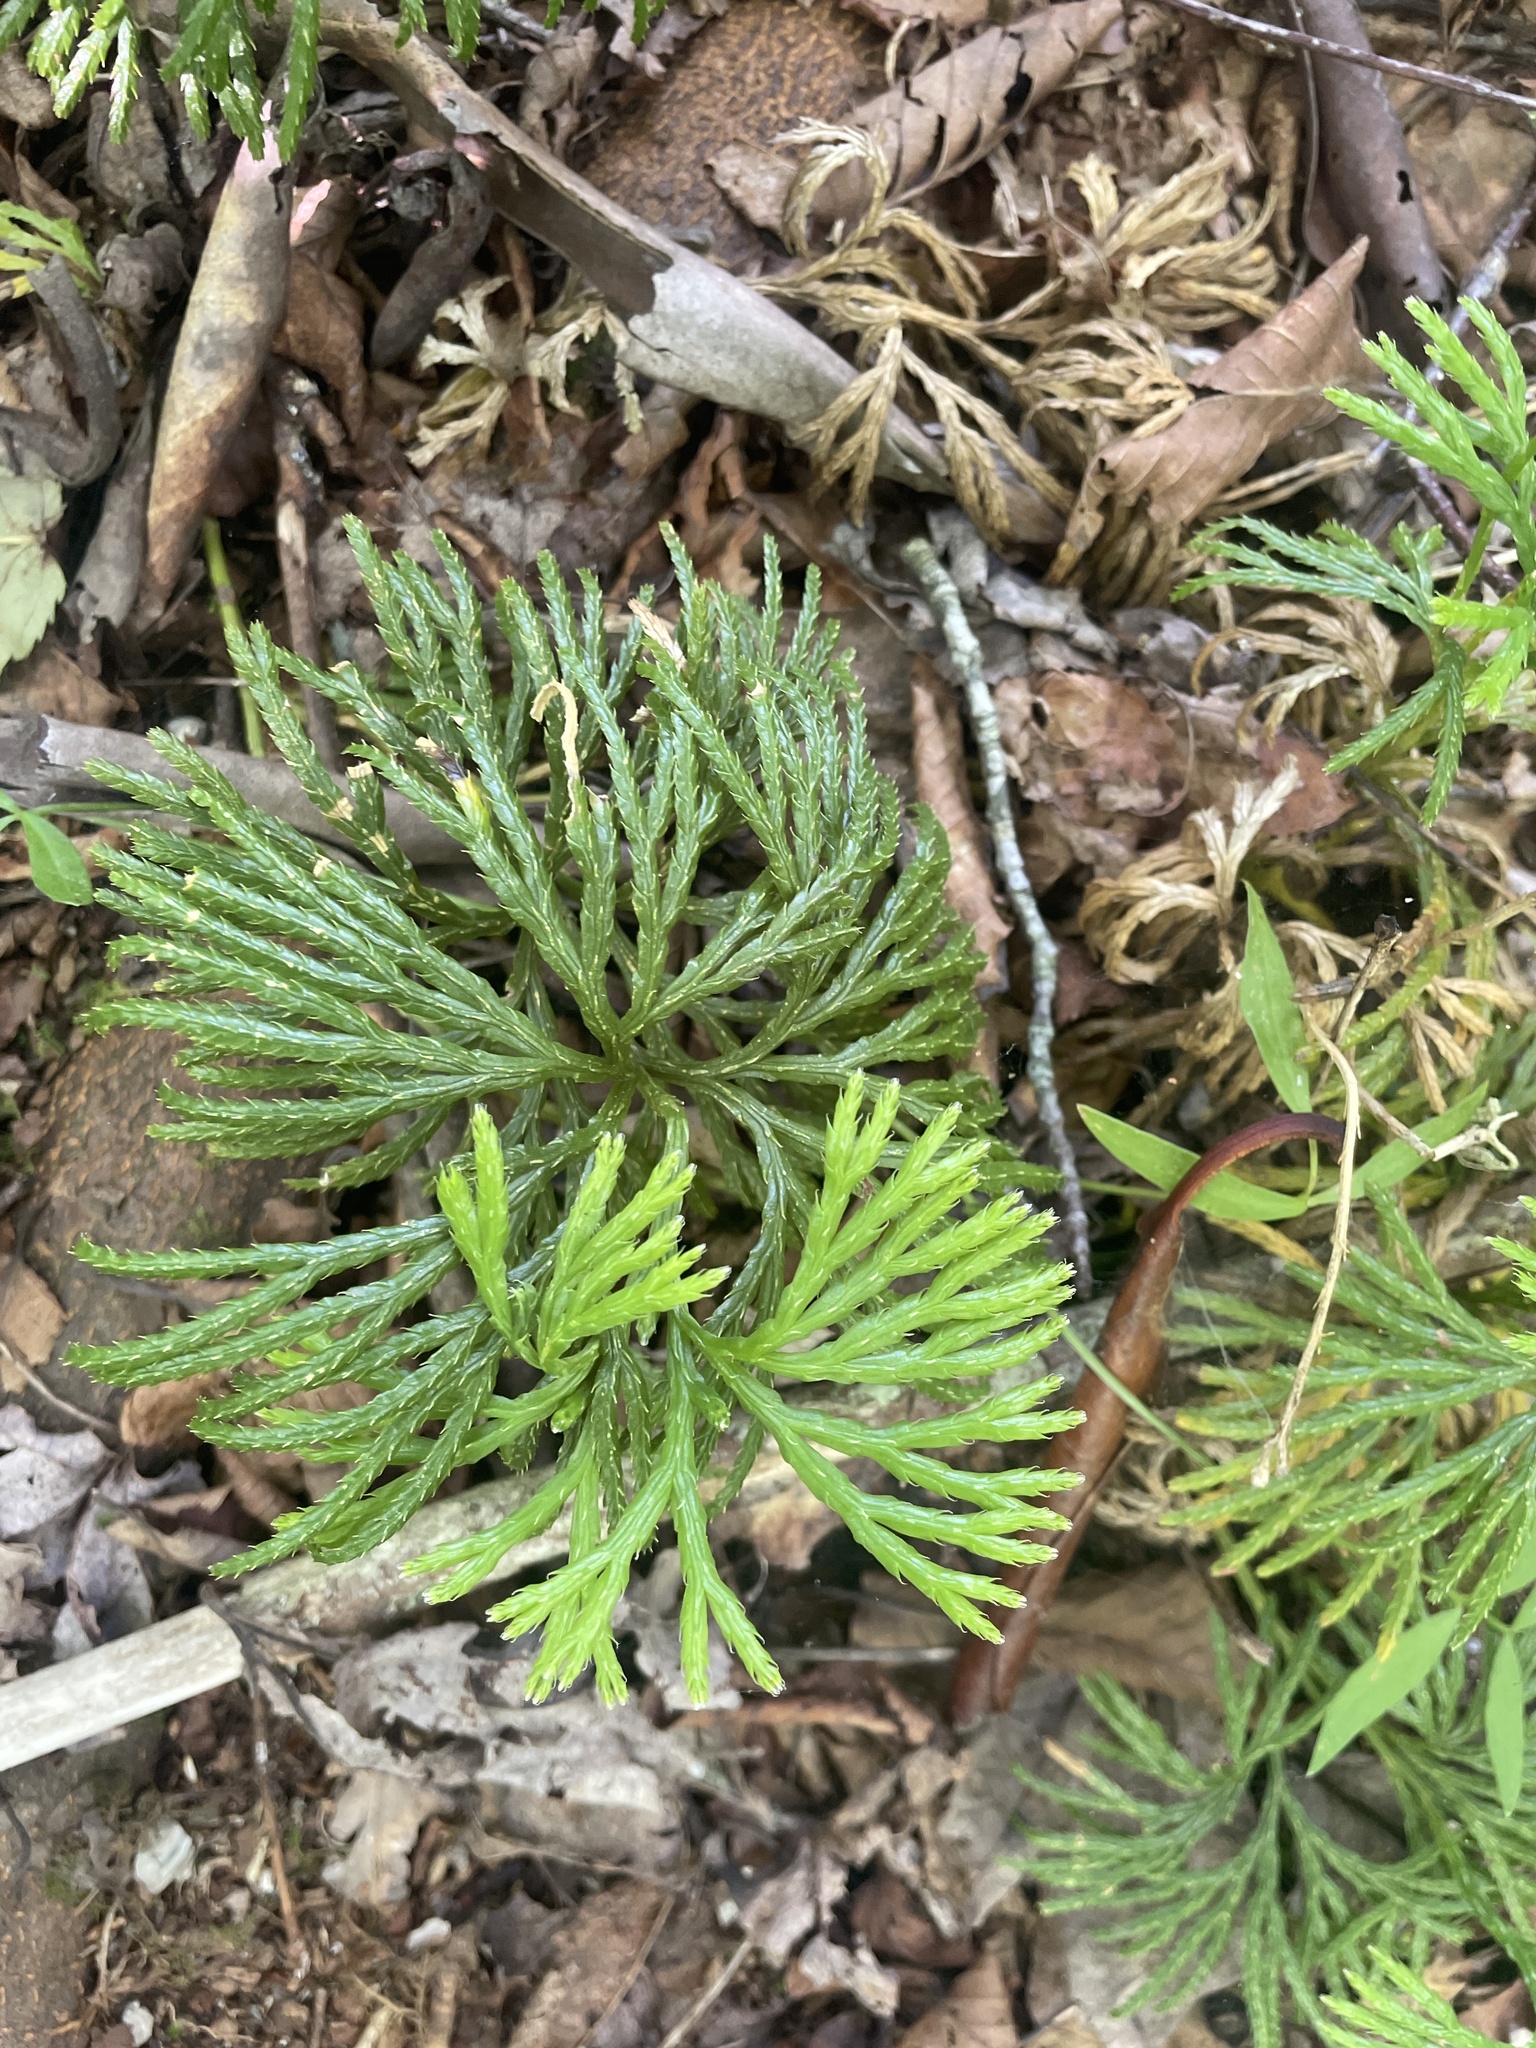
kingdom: Plantae
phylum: Tracheophyta
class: Lycopodiopsida
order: Lycopodiales
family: Lycopodiaceae
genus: Diphasiastrum
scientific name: Diphasiastrum digitatum
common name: Southern running-pine
